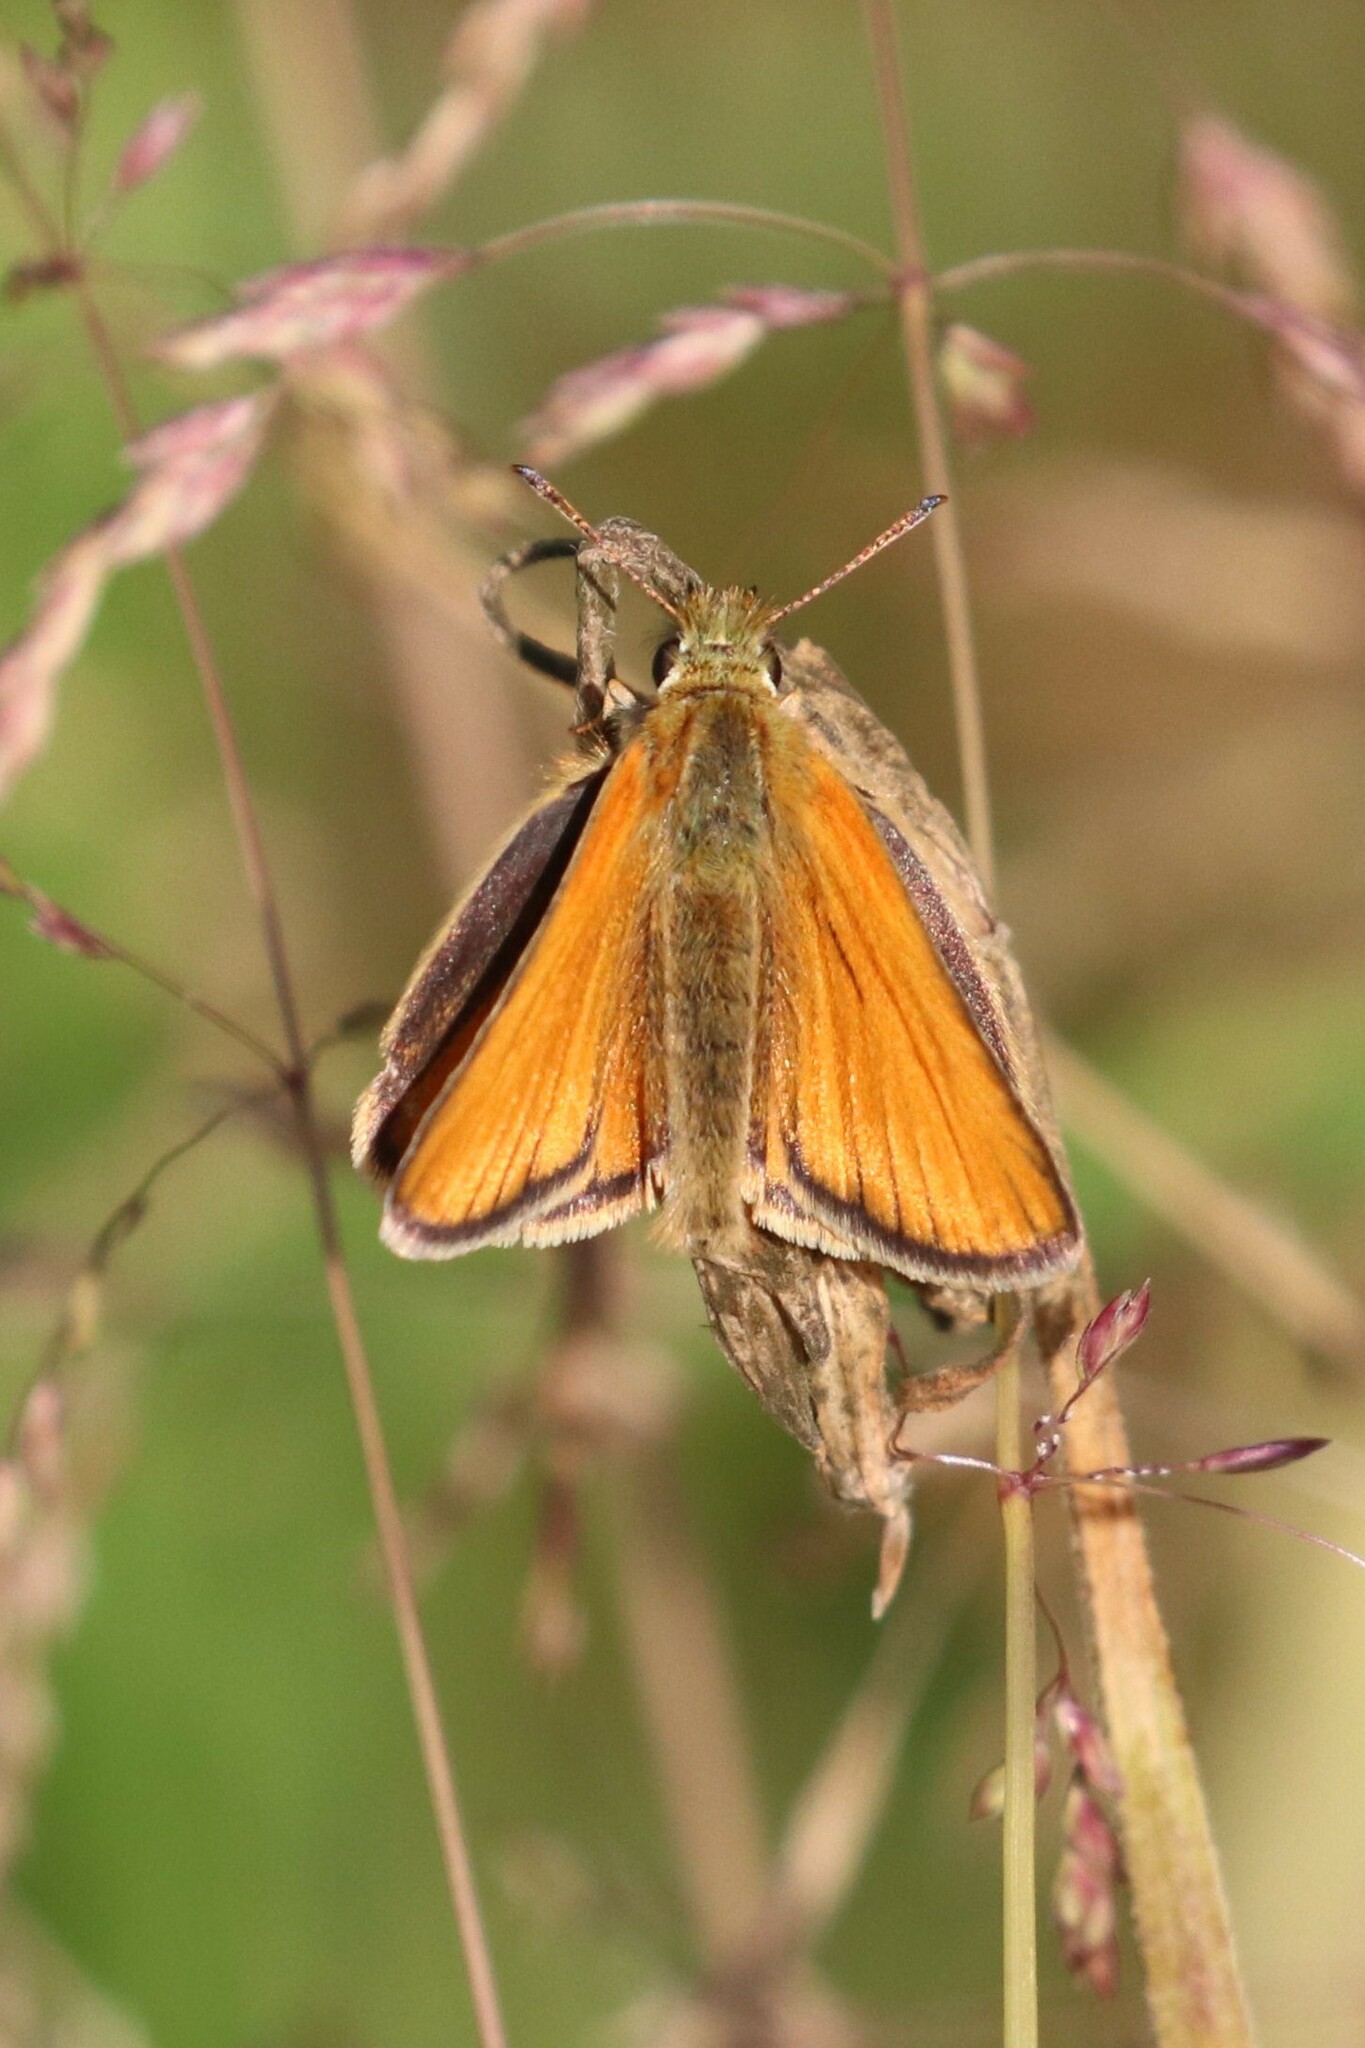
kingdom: Animalia
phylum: Arthropoda
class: Insecta
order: Lepidoptera
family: Hesperiidae
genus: Thymelicus
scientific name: Thymelicus lineola
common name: Essex skipper
